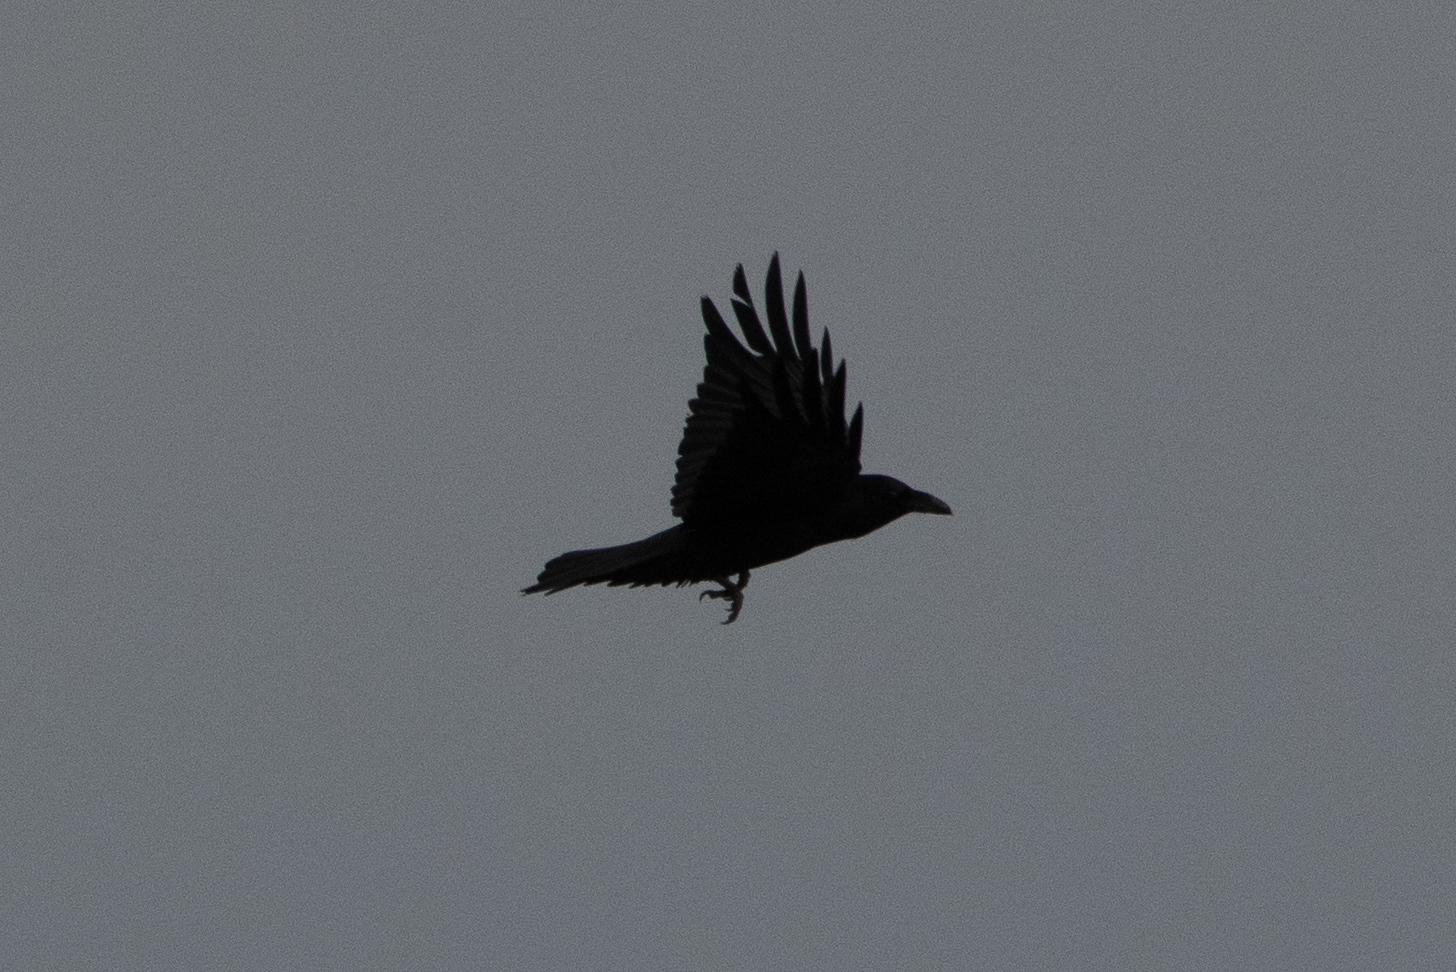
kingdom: Animalia
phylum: Chordata
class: Aves
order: Passeriformes
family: Corvidae
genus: Corvus
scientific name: Corvus corax
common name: Common raven
